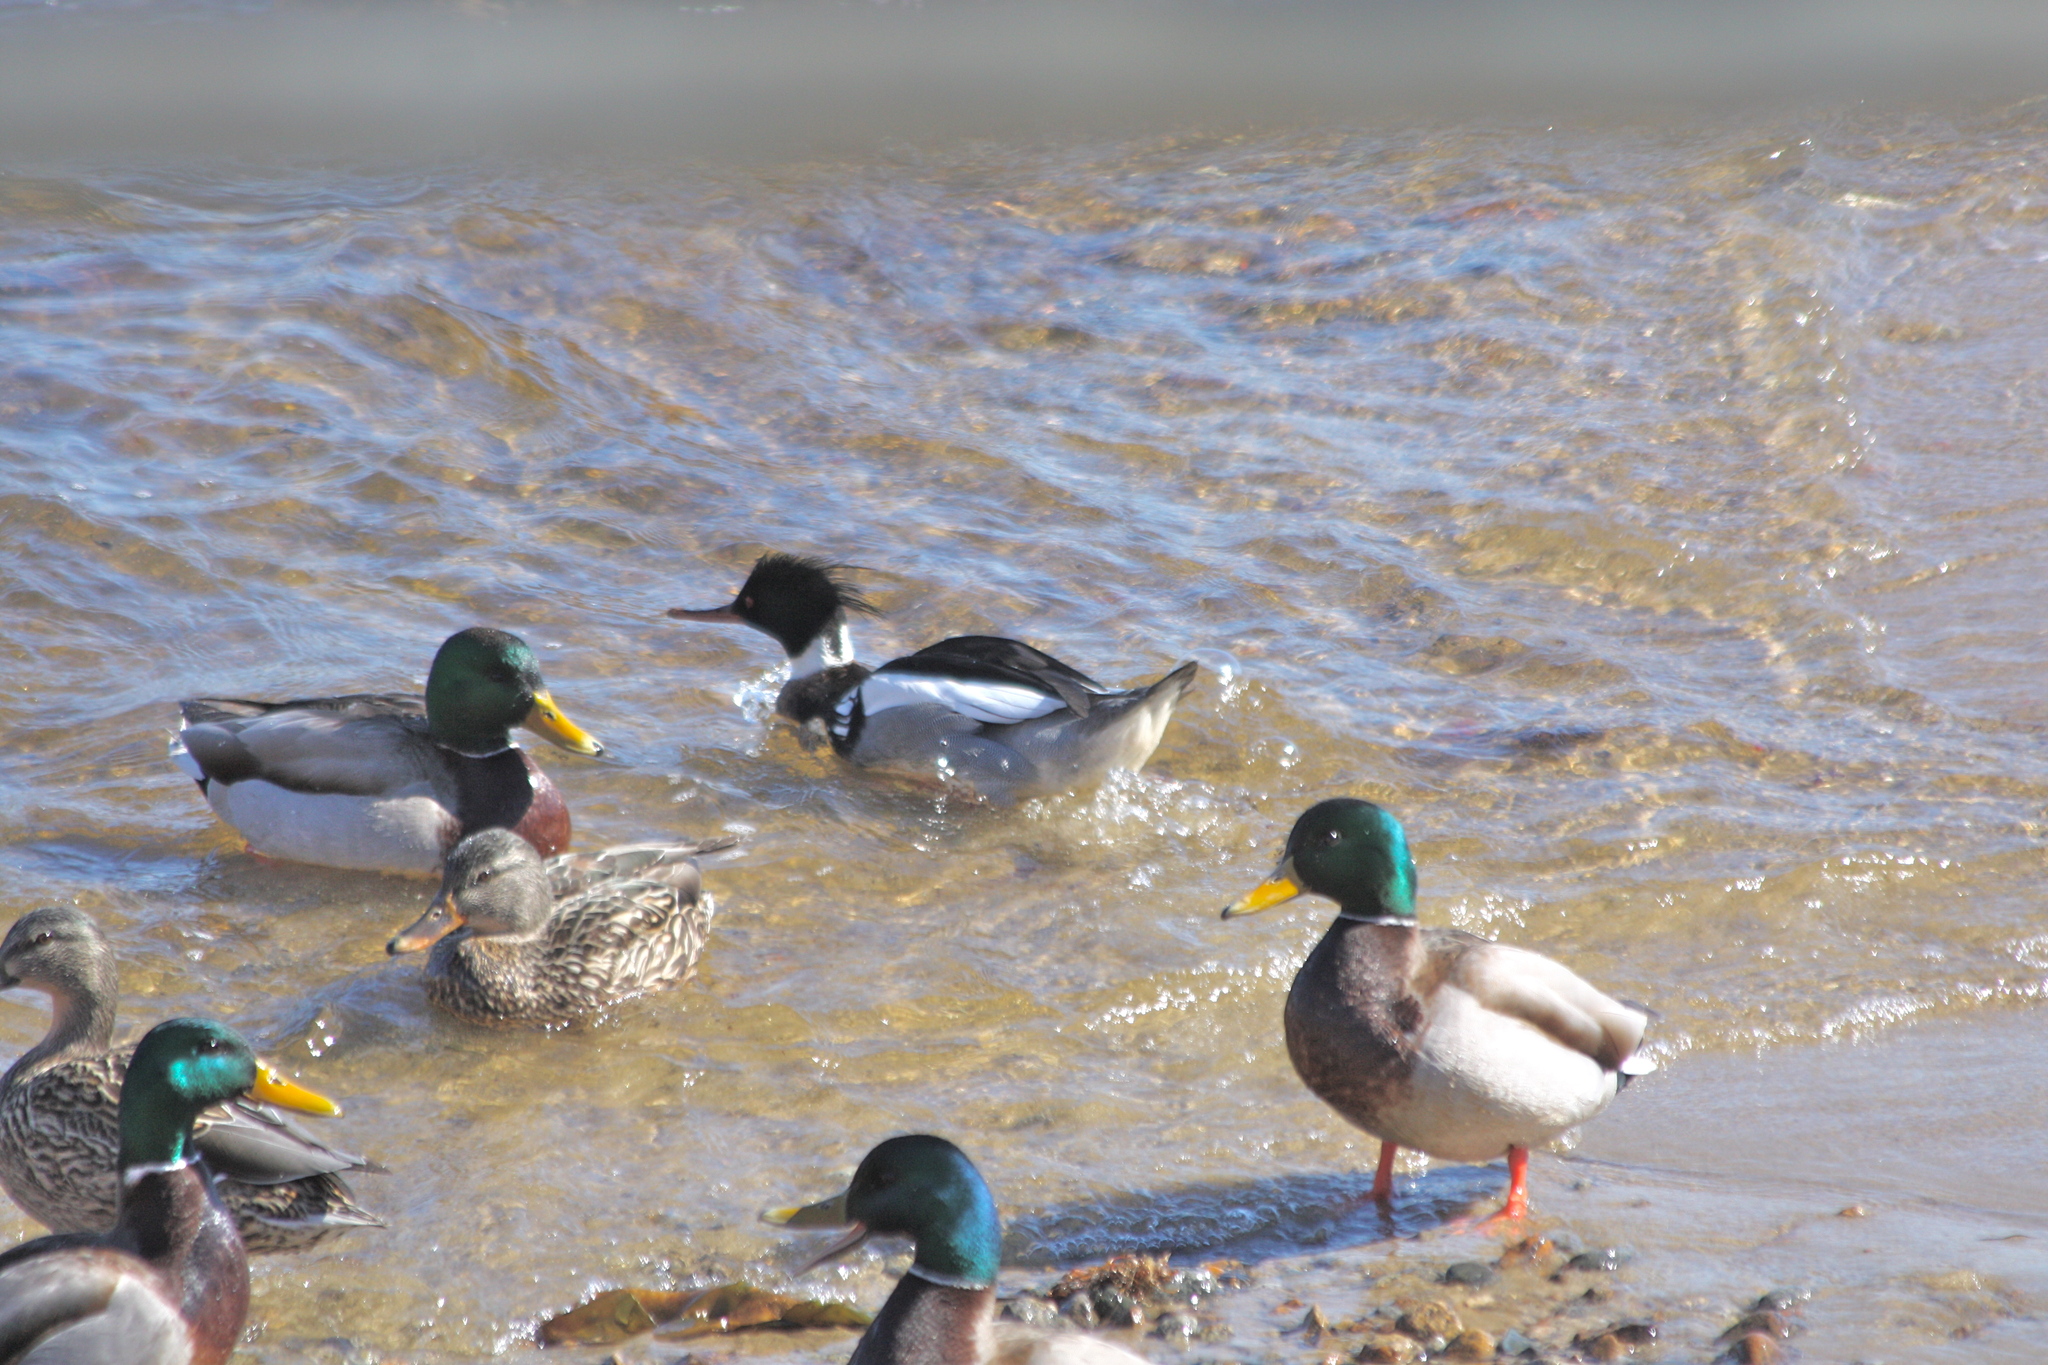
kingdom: Animalia
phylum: Chordata
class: Aves
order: Anseriformes
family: Anatidae
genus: Mergus
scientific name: Mergus serrator
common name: Red-breasted merganser
